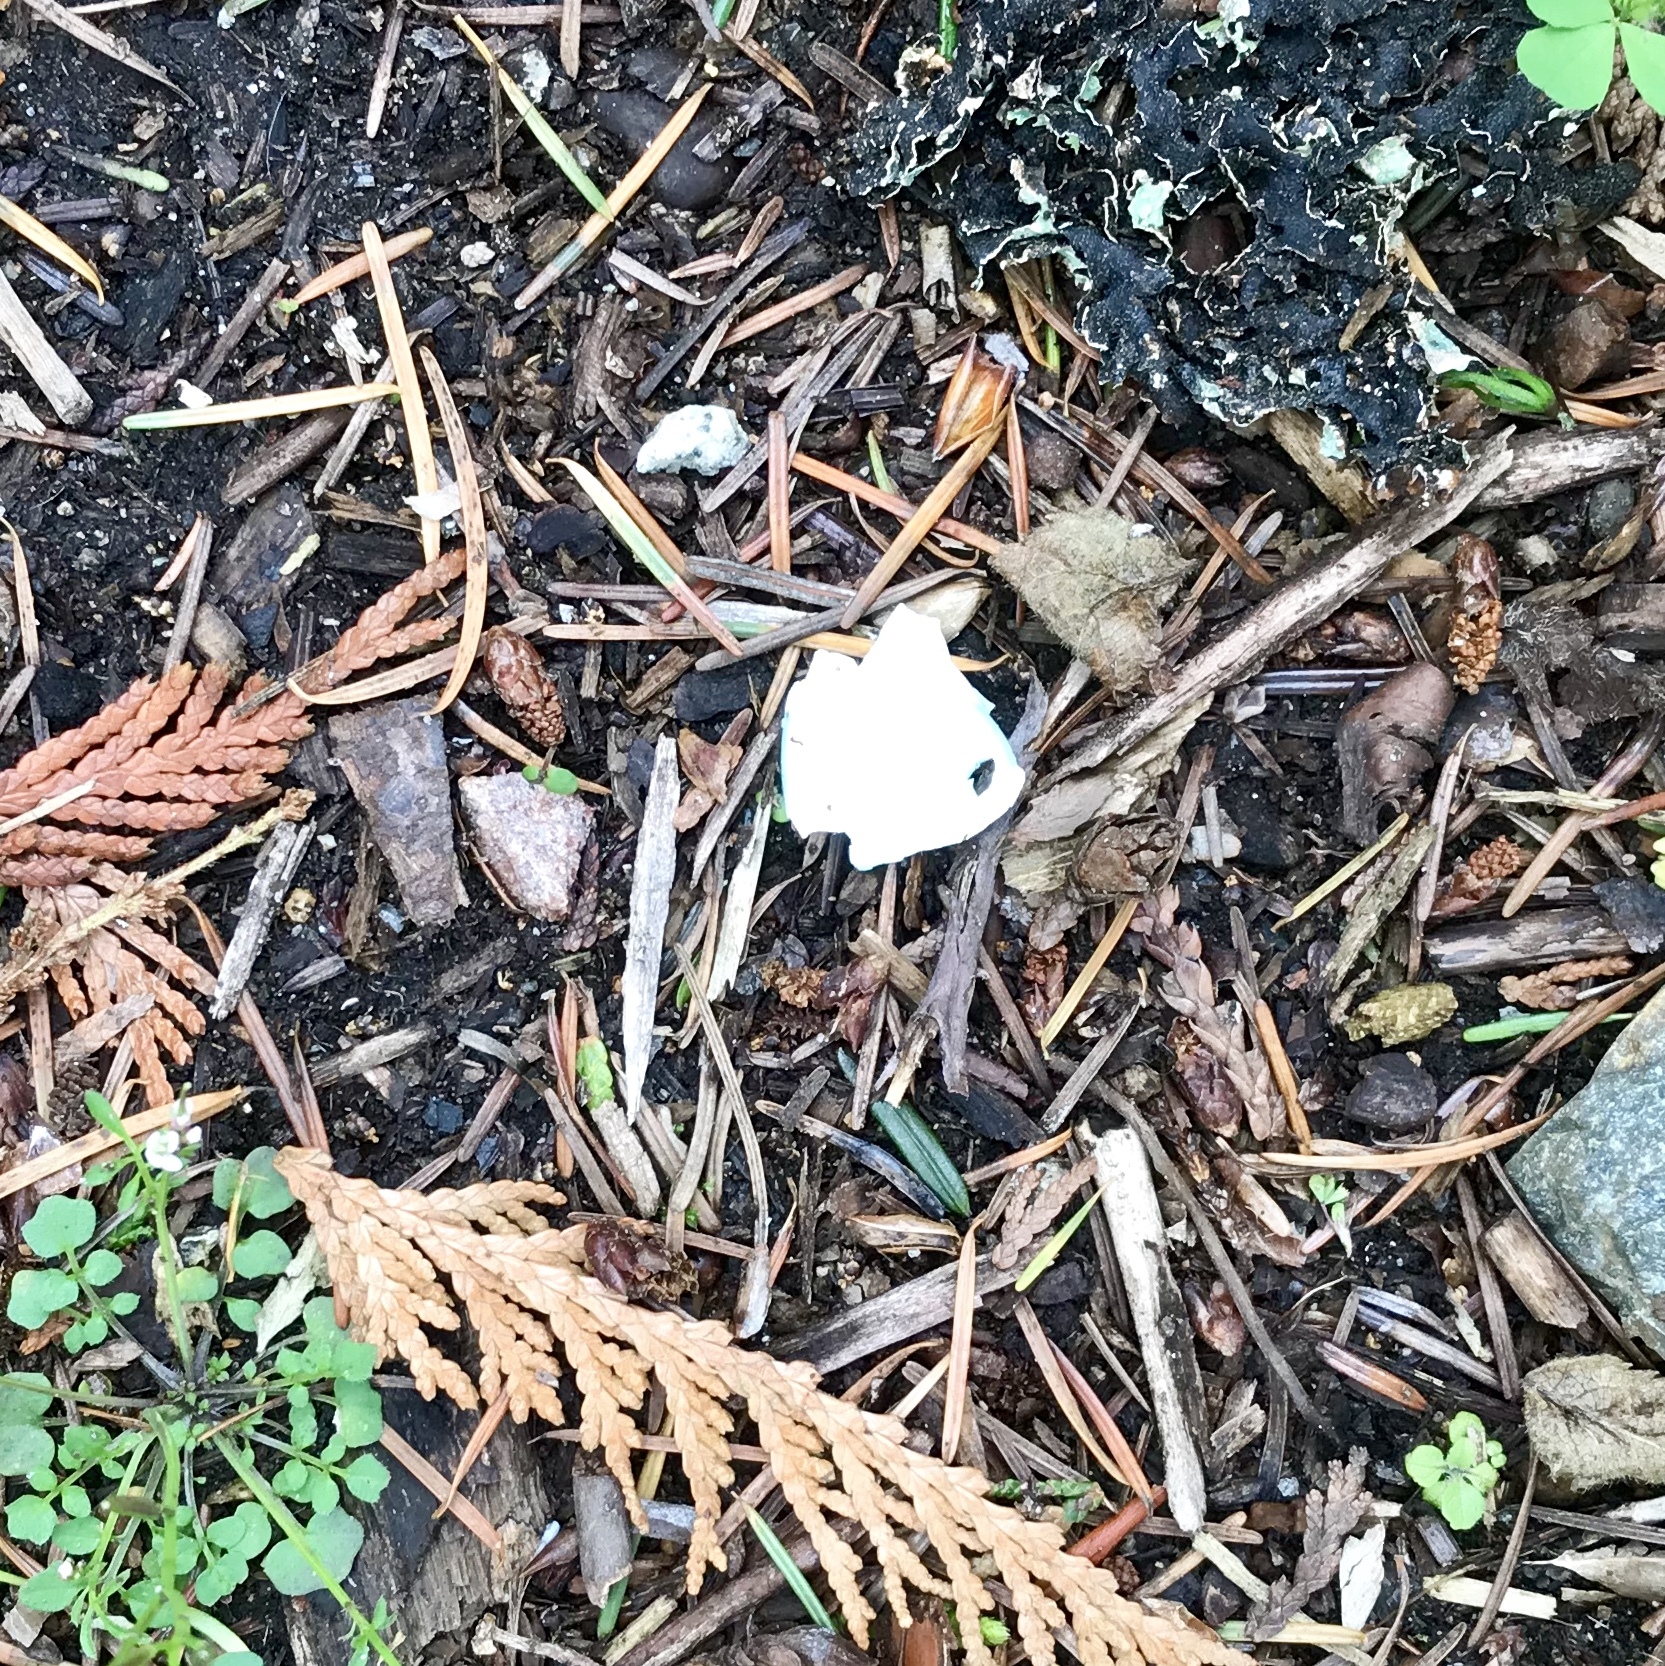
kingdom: Animalia
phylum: Chordata
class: Aves
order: Passeriformes
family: Turdidae
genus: Turdus
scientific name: Turdus migratorius
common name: American robin
